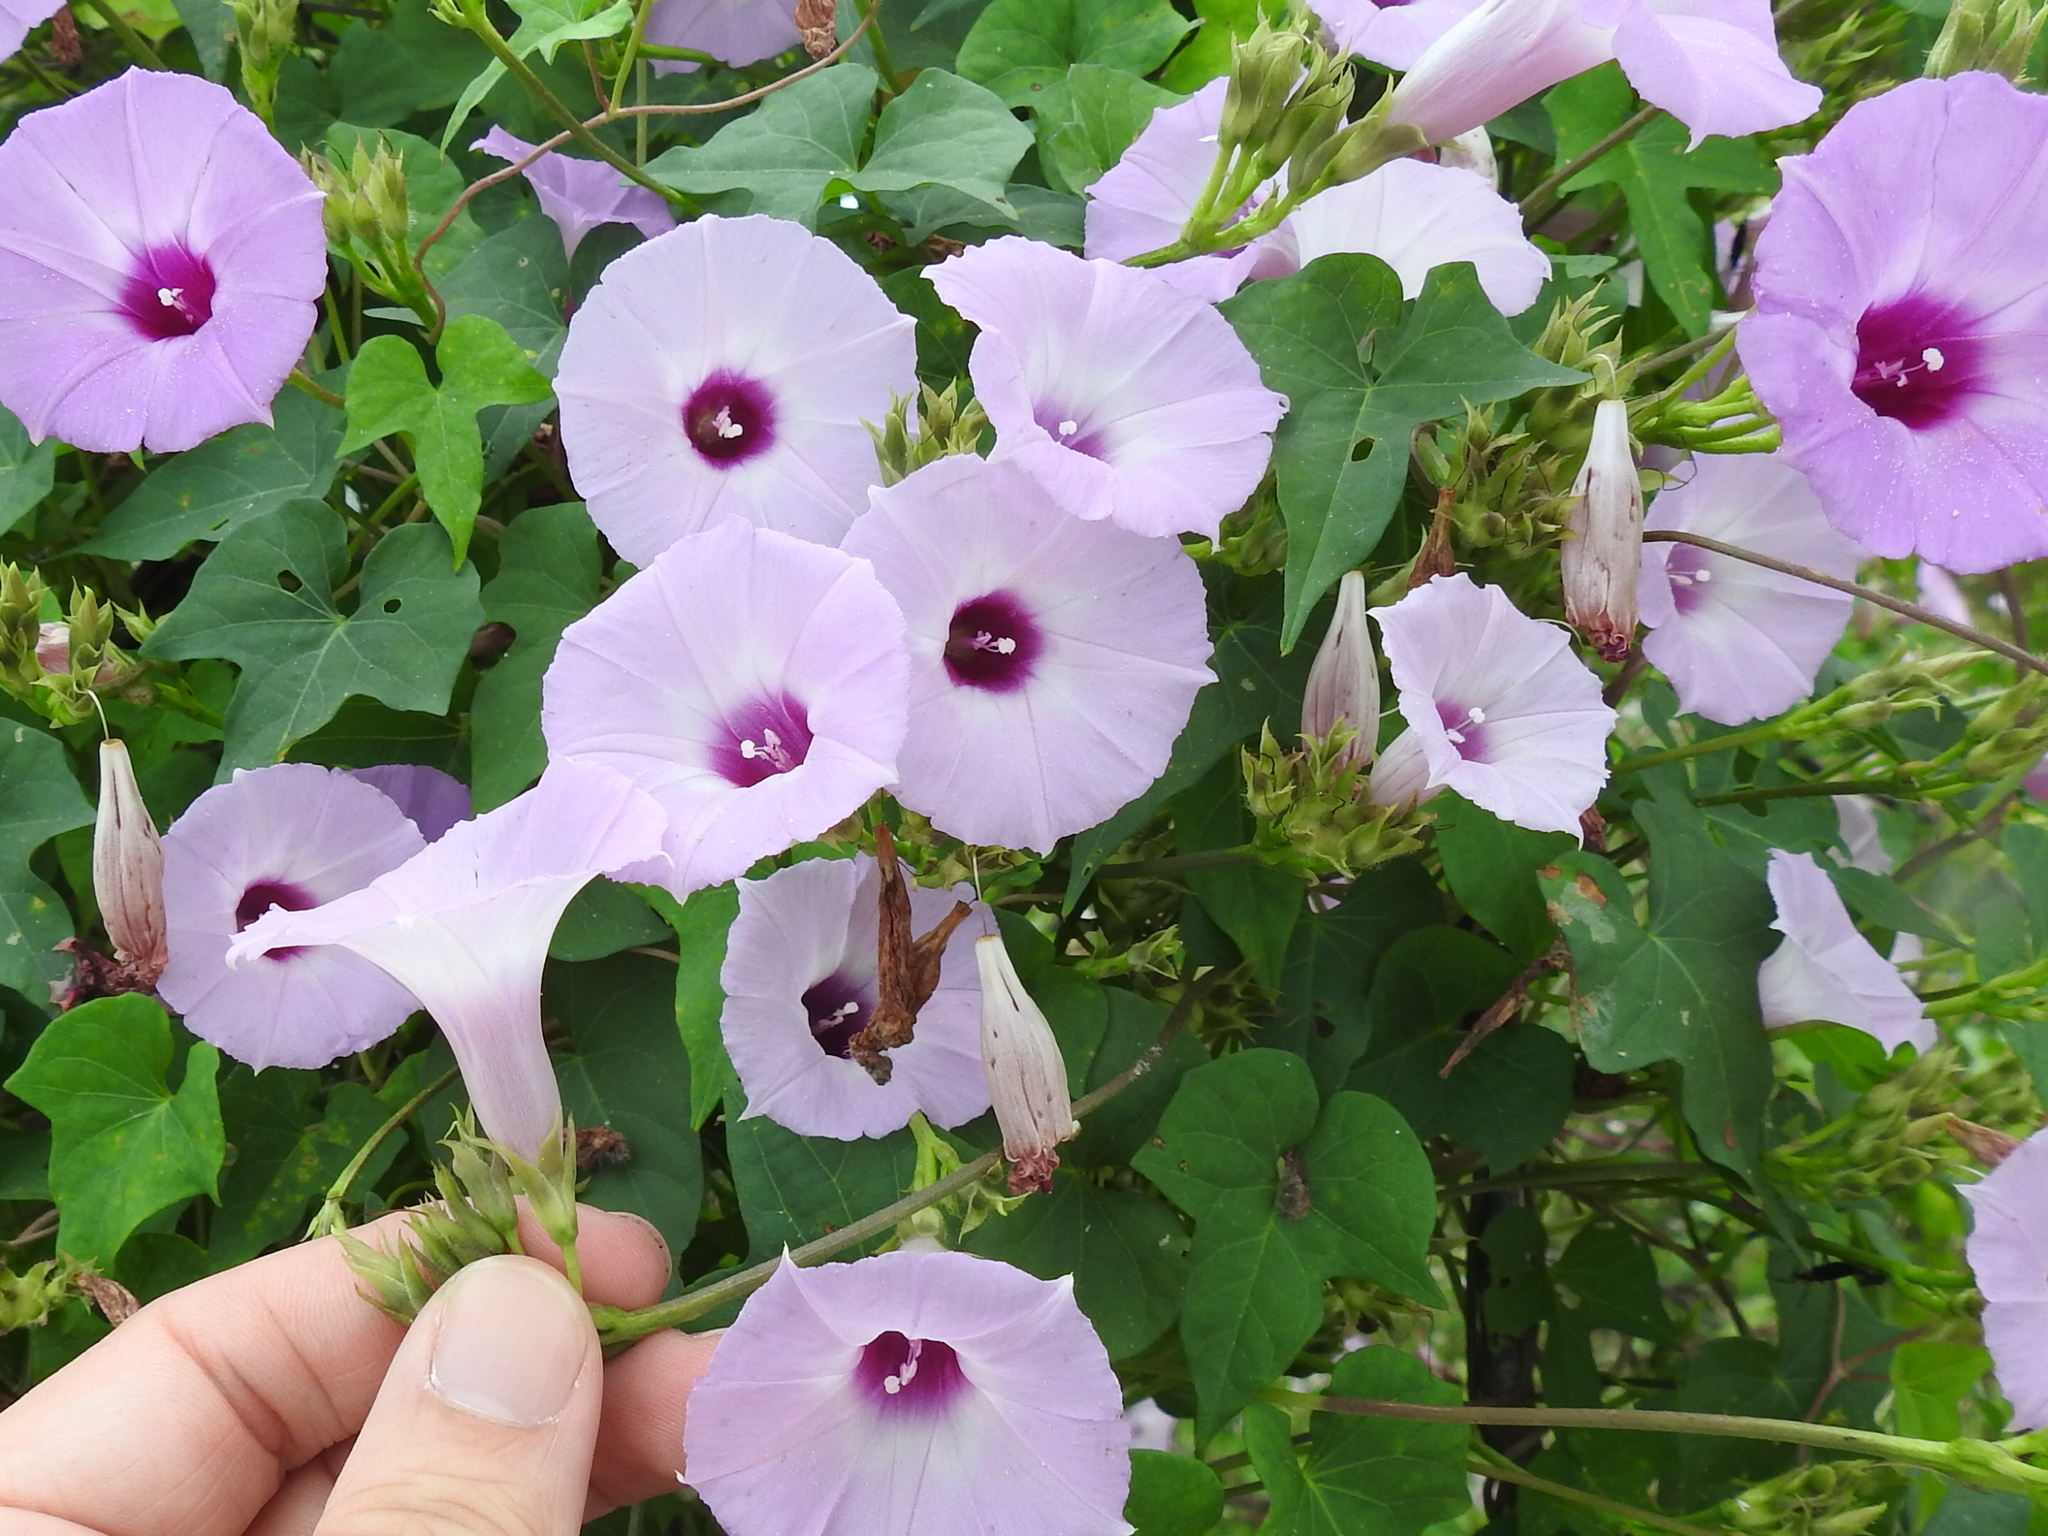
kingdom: Plantae
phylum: Tracheophyta
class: Magnoliopsida
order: Solanales
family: Convolvulaceae
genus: Ipomoea
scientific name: Ipomoea cordatotriloba
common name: Cotton morning glory
